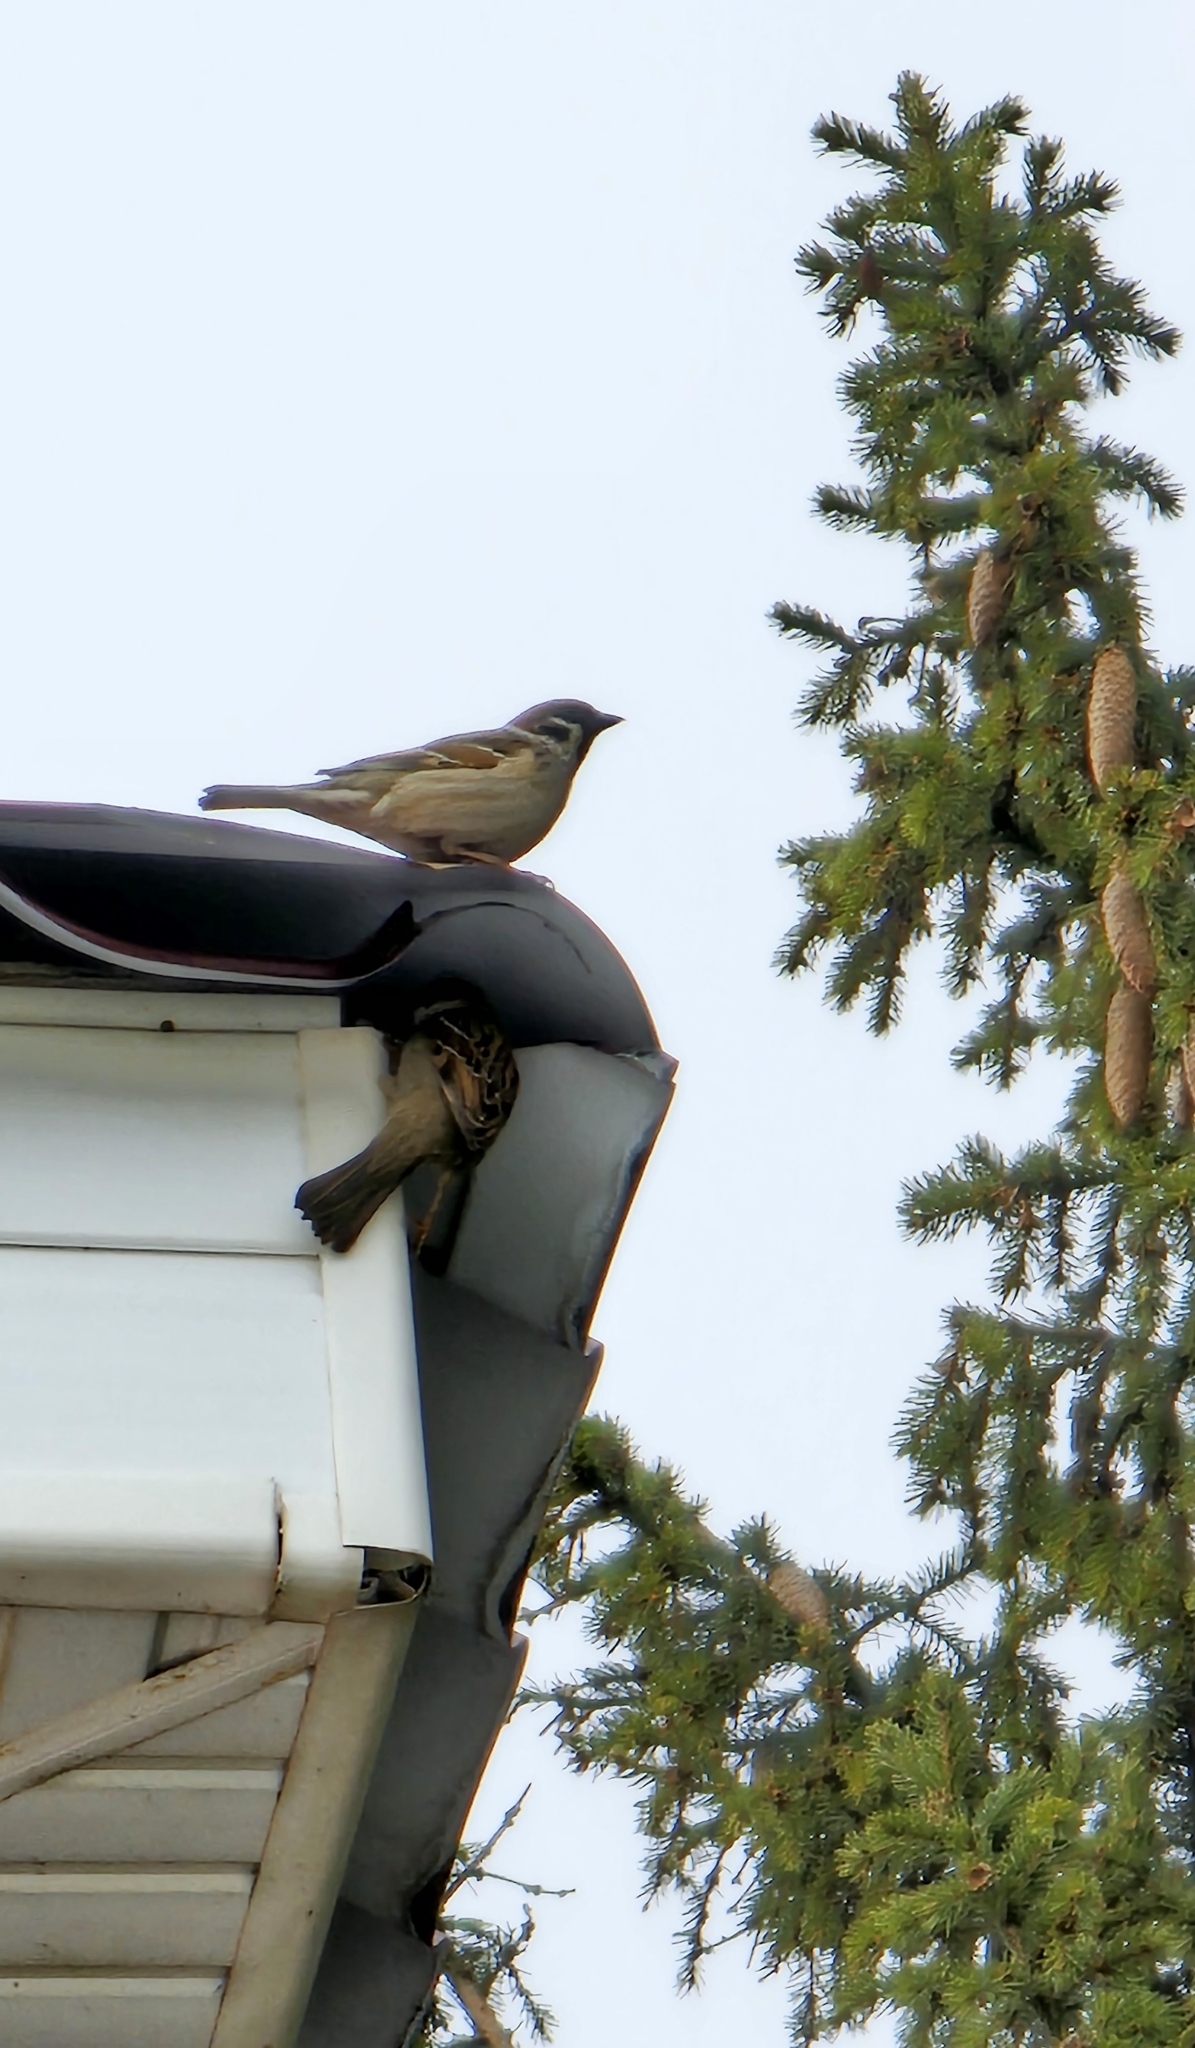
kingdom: Animalia
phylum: Chordata
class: Aves
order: Passeriformes
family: Passeridae
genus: Passer
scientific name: Passer montanus
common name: Eurasian tree sparrow
